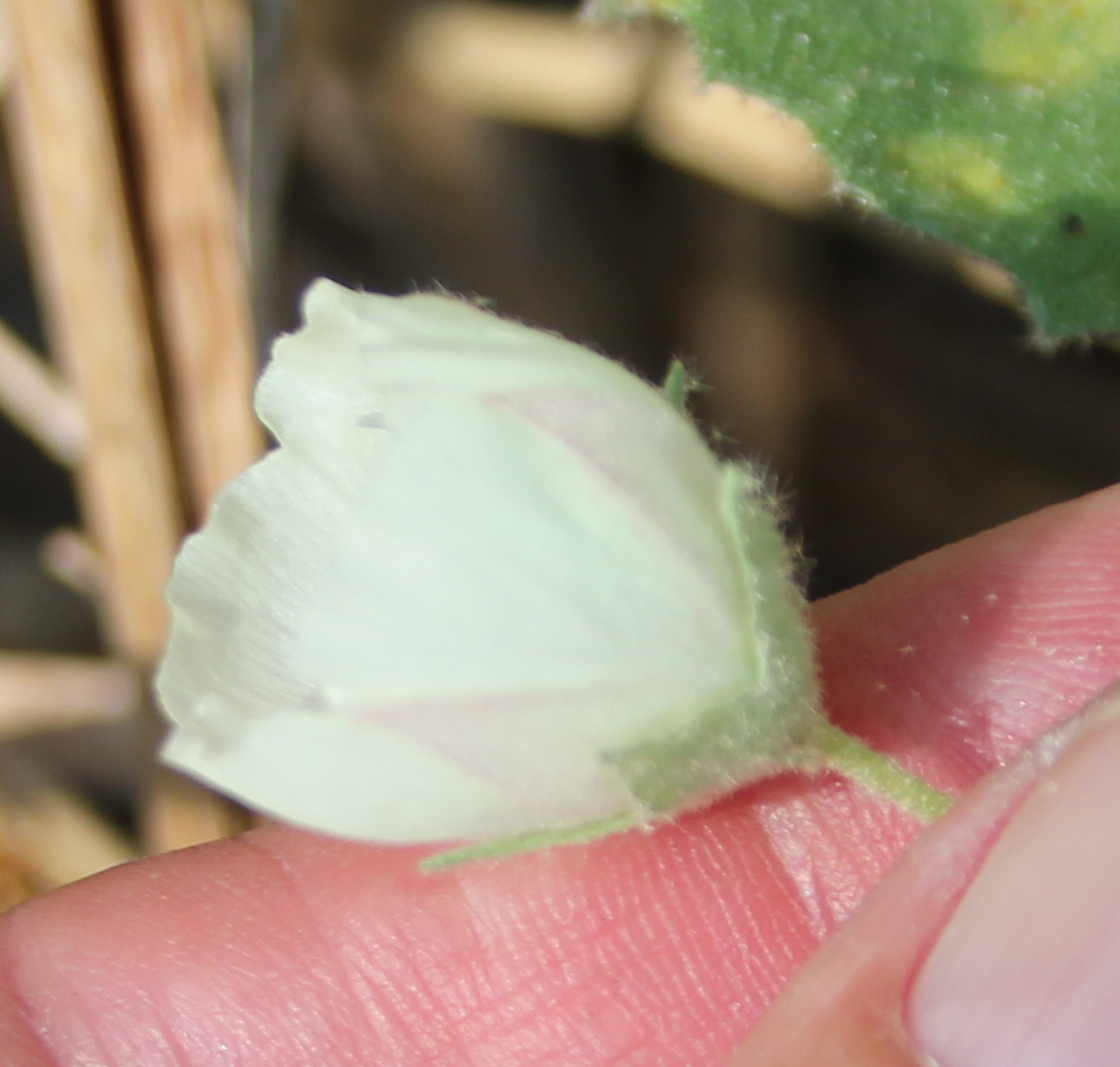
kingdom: Plantae
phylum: Tracheophyta
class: Magnoliopsida
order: Malvales
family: Malvaceae
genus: Malvella
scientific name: Malvella leprosa
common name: Alkali-mallow
